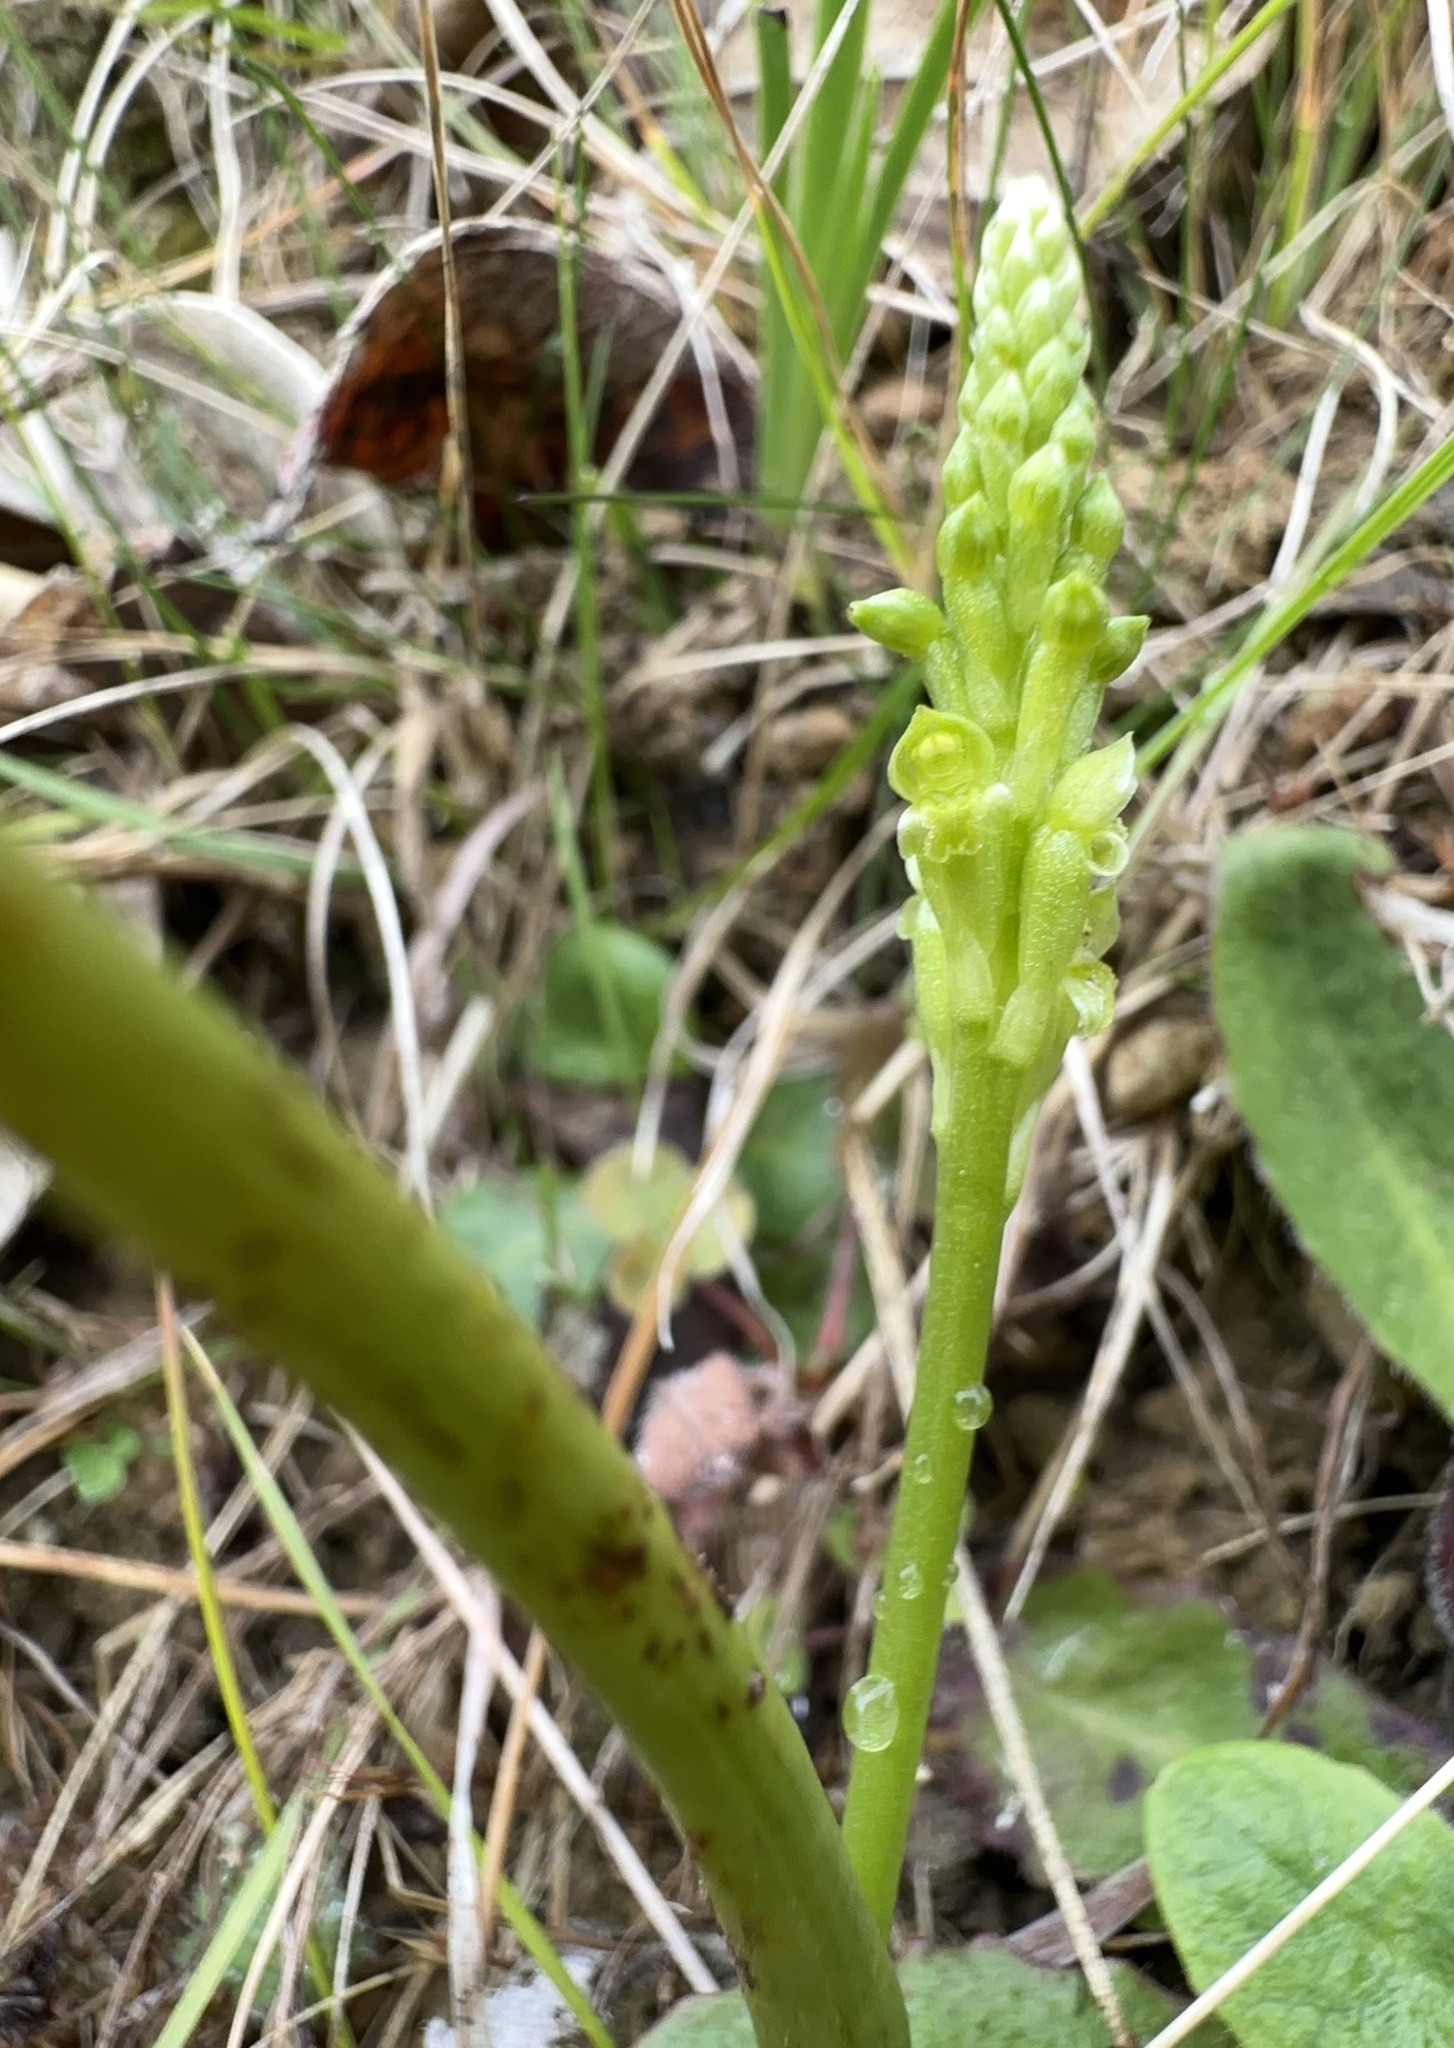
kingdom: Plantae
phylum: Tracheophyta
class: Liliopsida
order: Asparagales
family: Orchidaceae
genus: Microtis
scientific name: Microtis unifolia
